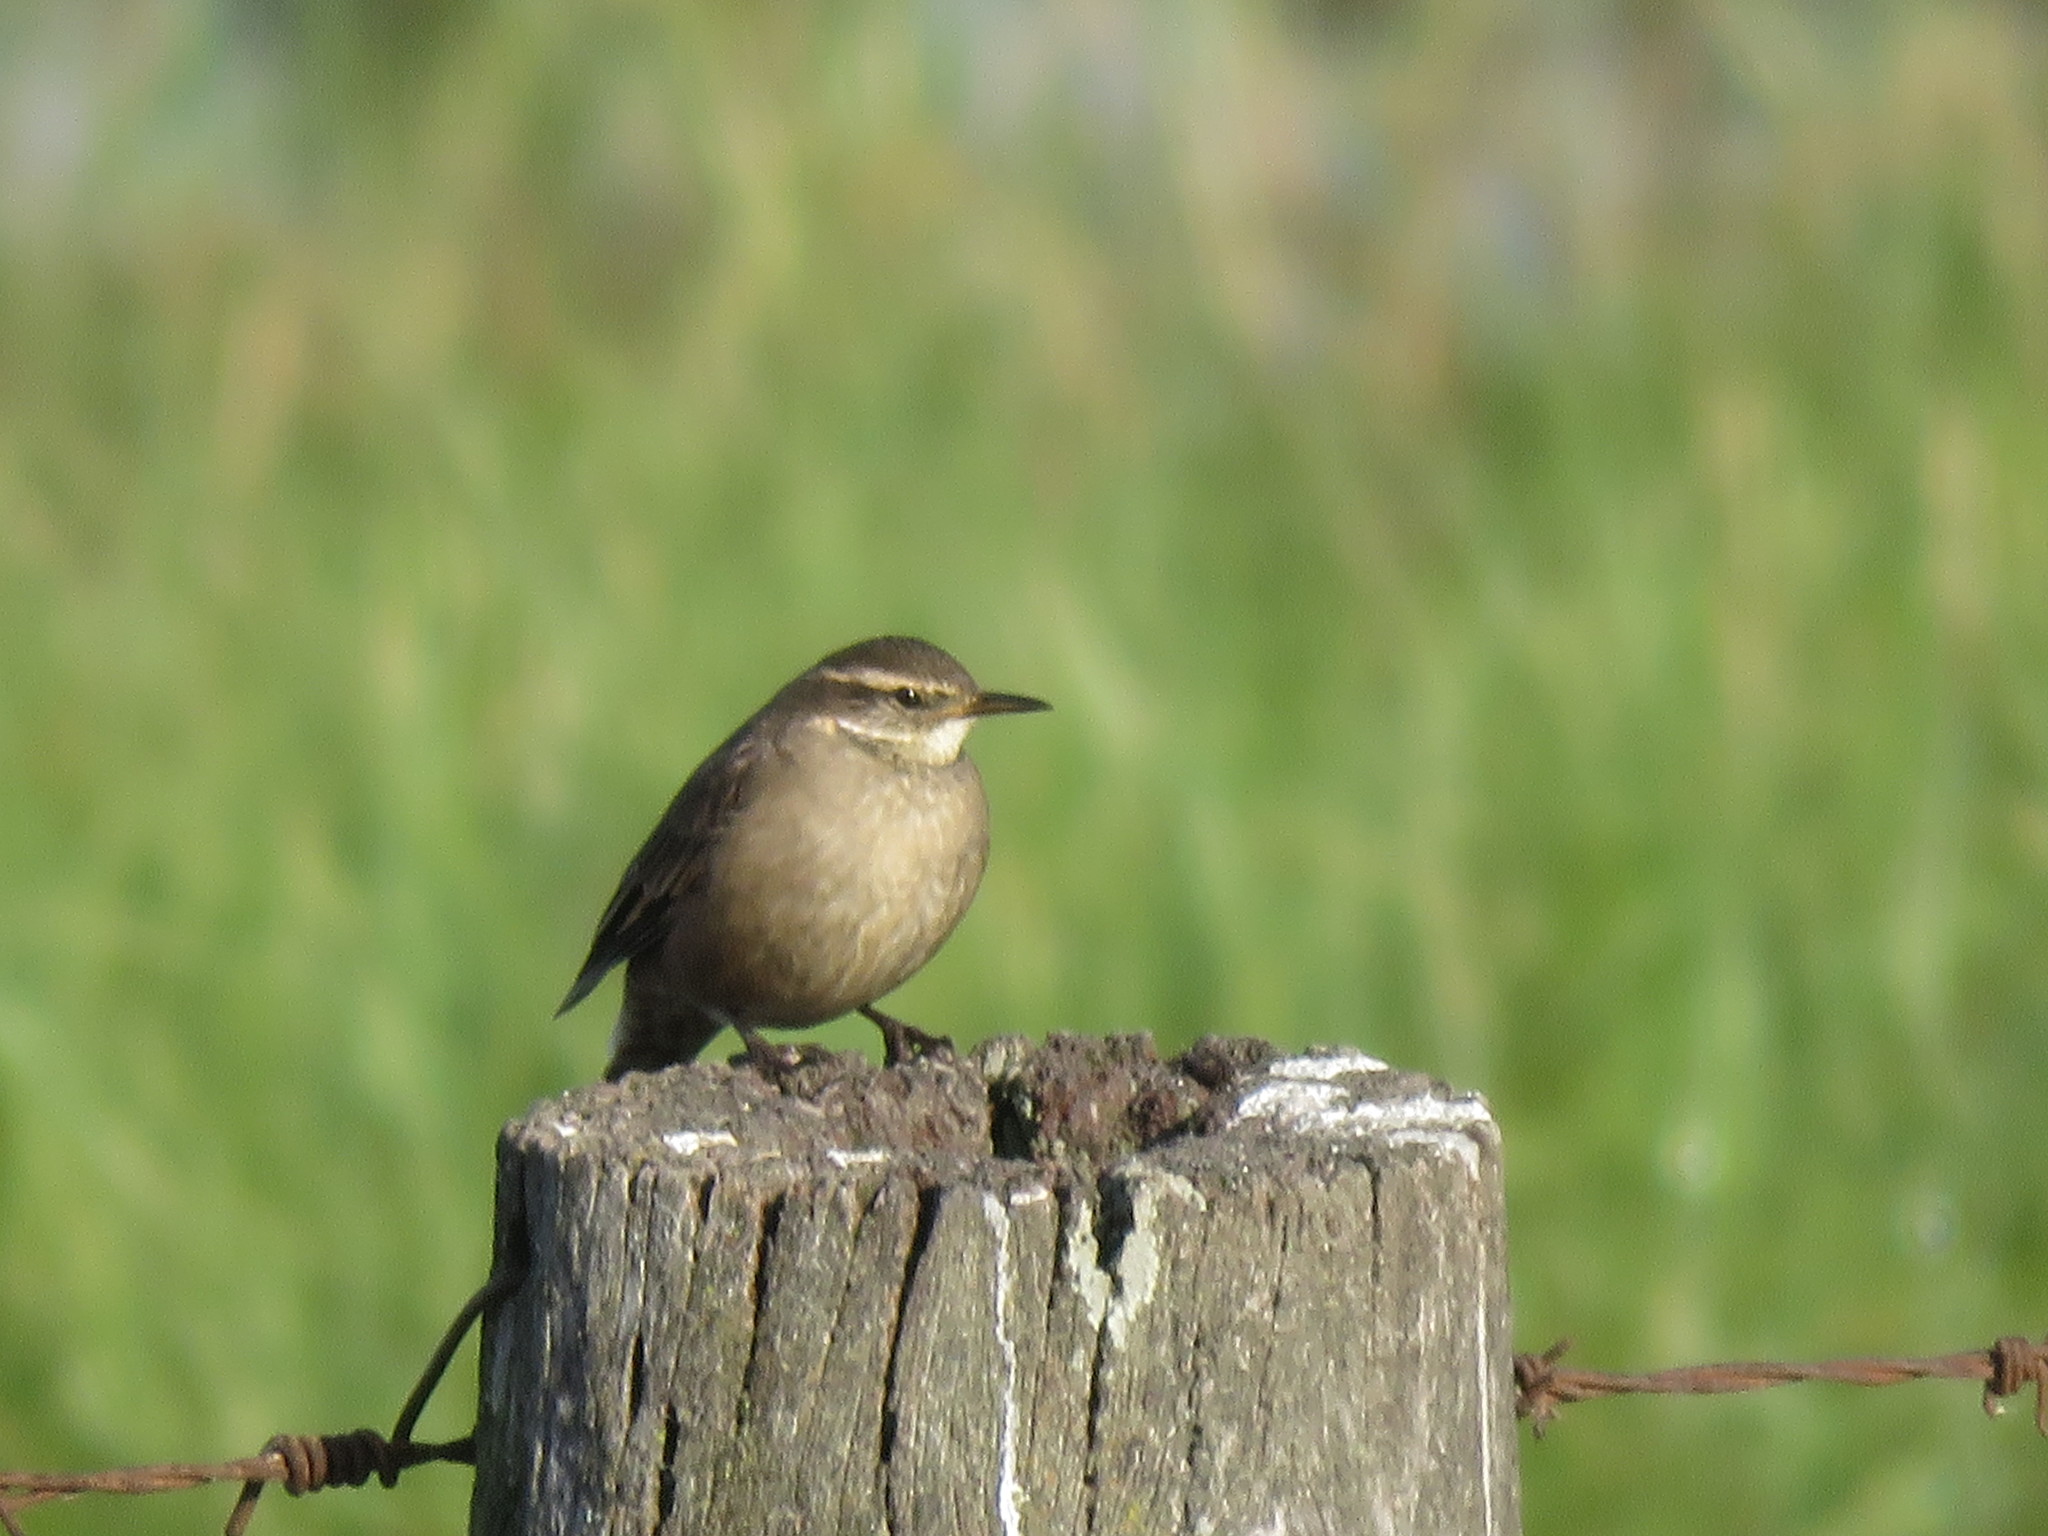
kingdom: Animalia
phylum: Chordata
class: Aves
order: Passeriformes
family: Furnariidae
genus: Cinclodes
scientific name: Cinclodes fuscus
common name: Buff-winged cinclodes
